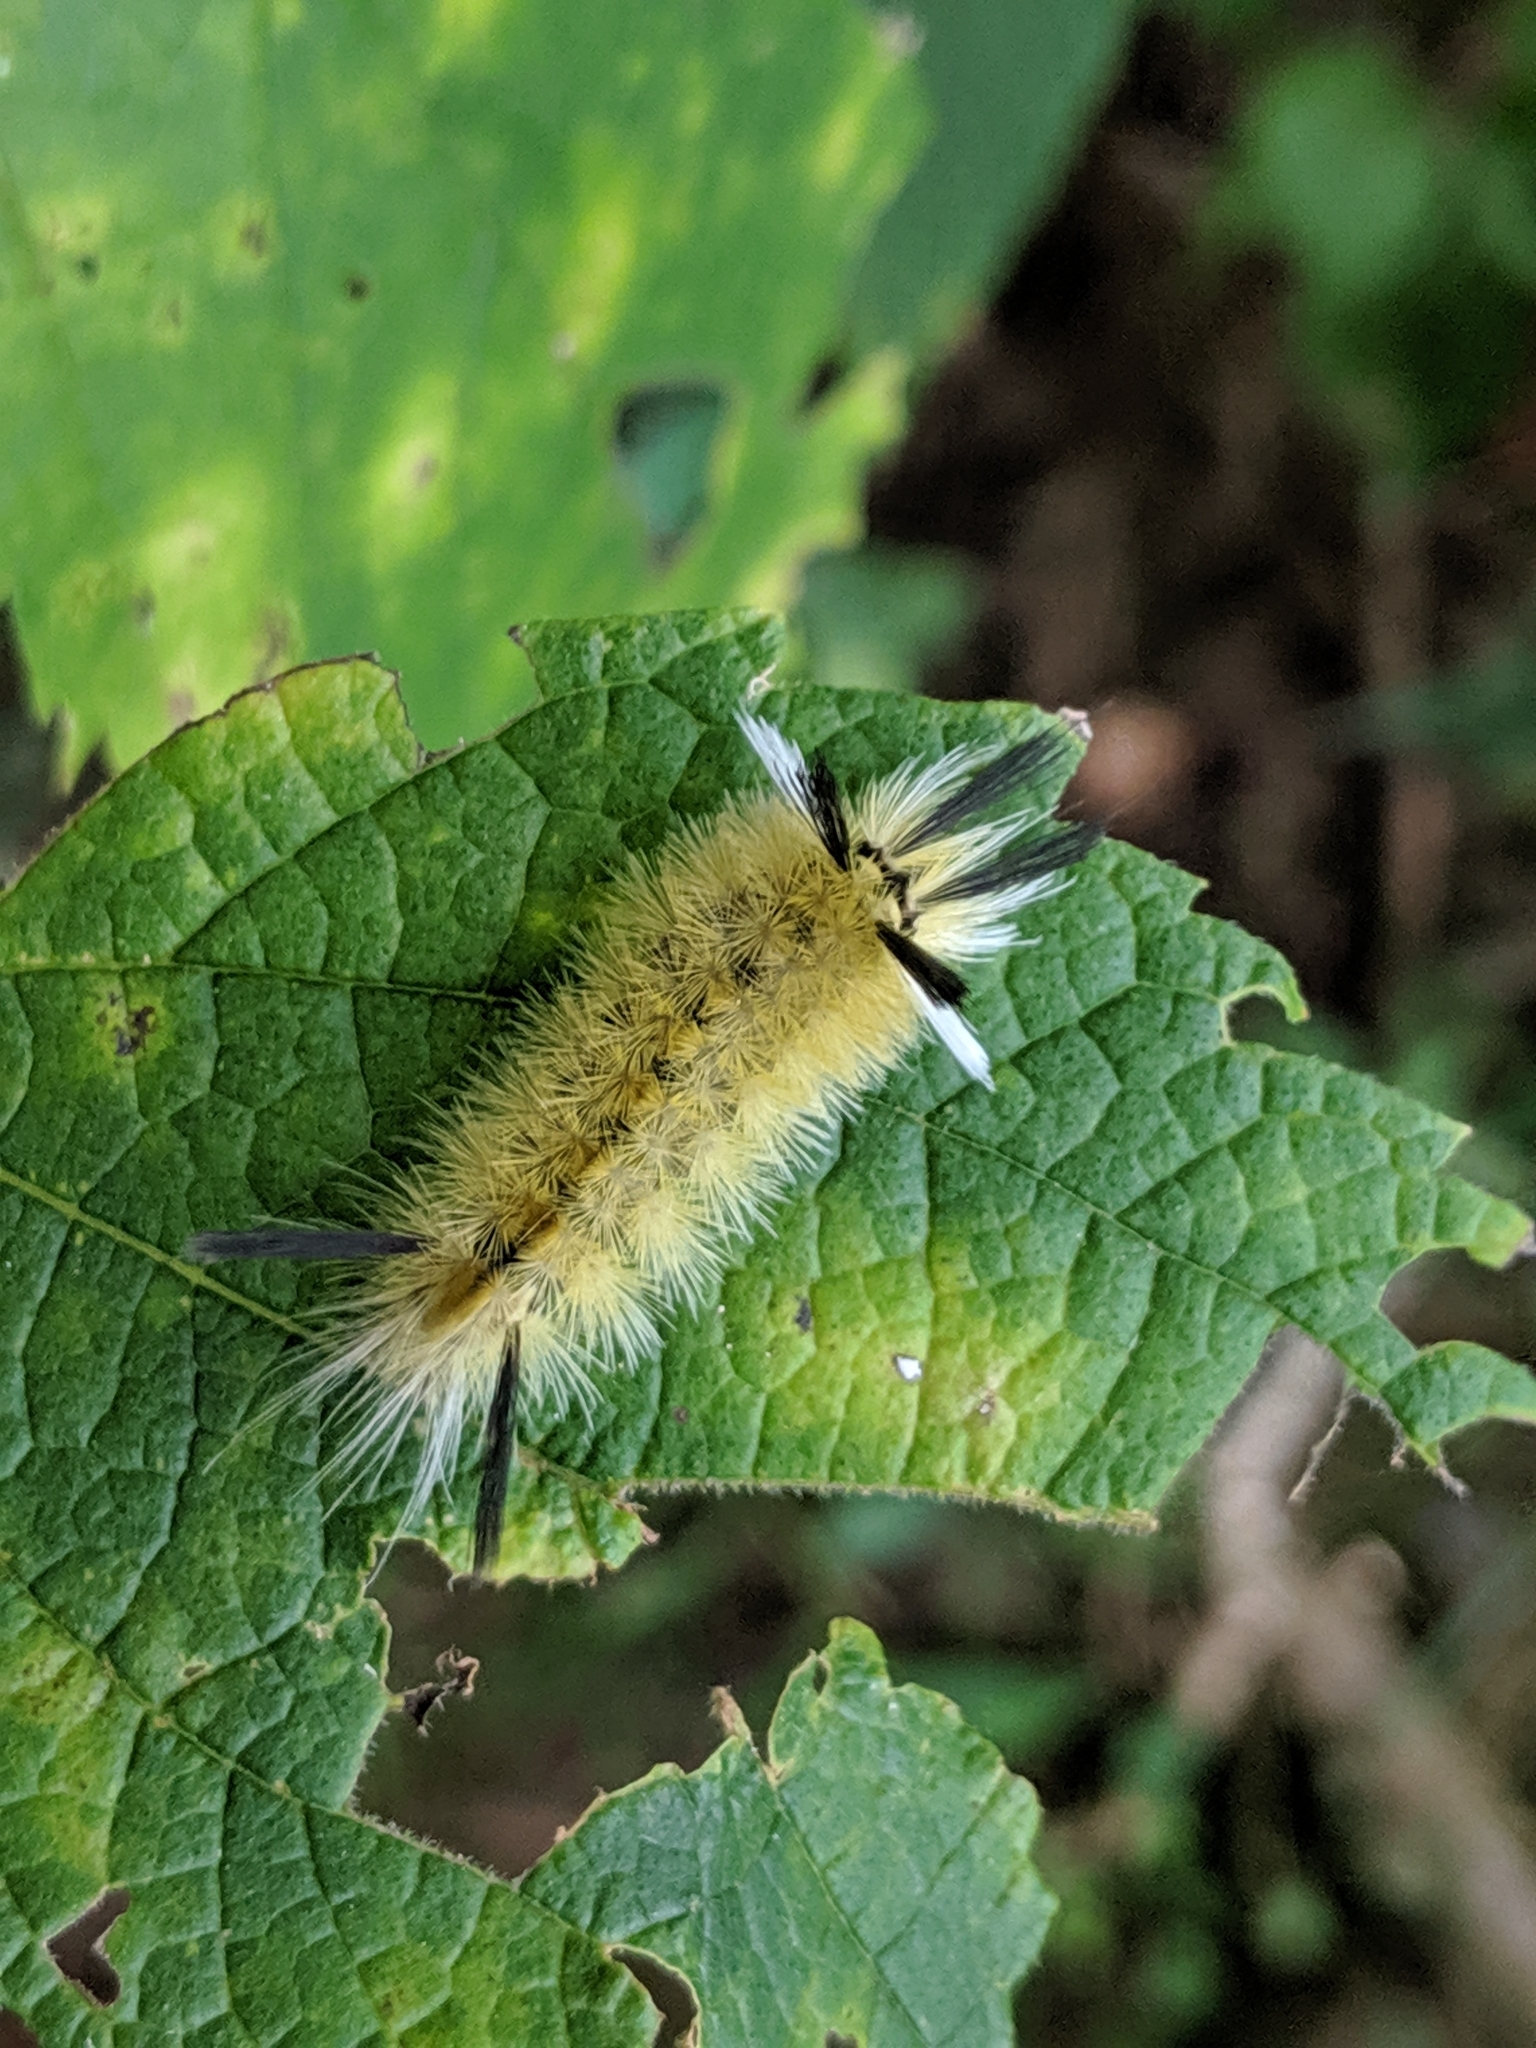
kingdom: Animalia
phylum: Arthropoda
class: Insecta
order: Lepidoptera
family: Erebidae
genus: Halysidota
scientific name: Halysidota tessellaris
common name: Banded tussock moth
